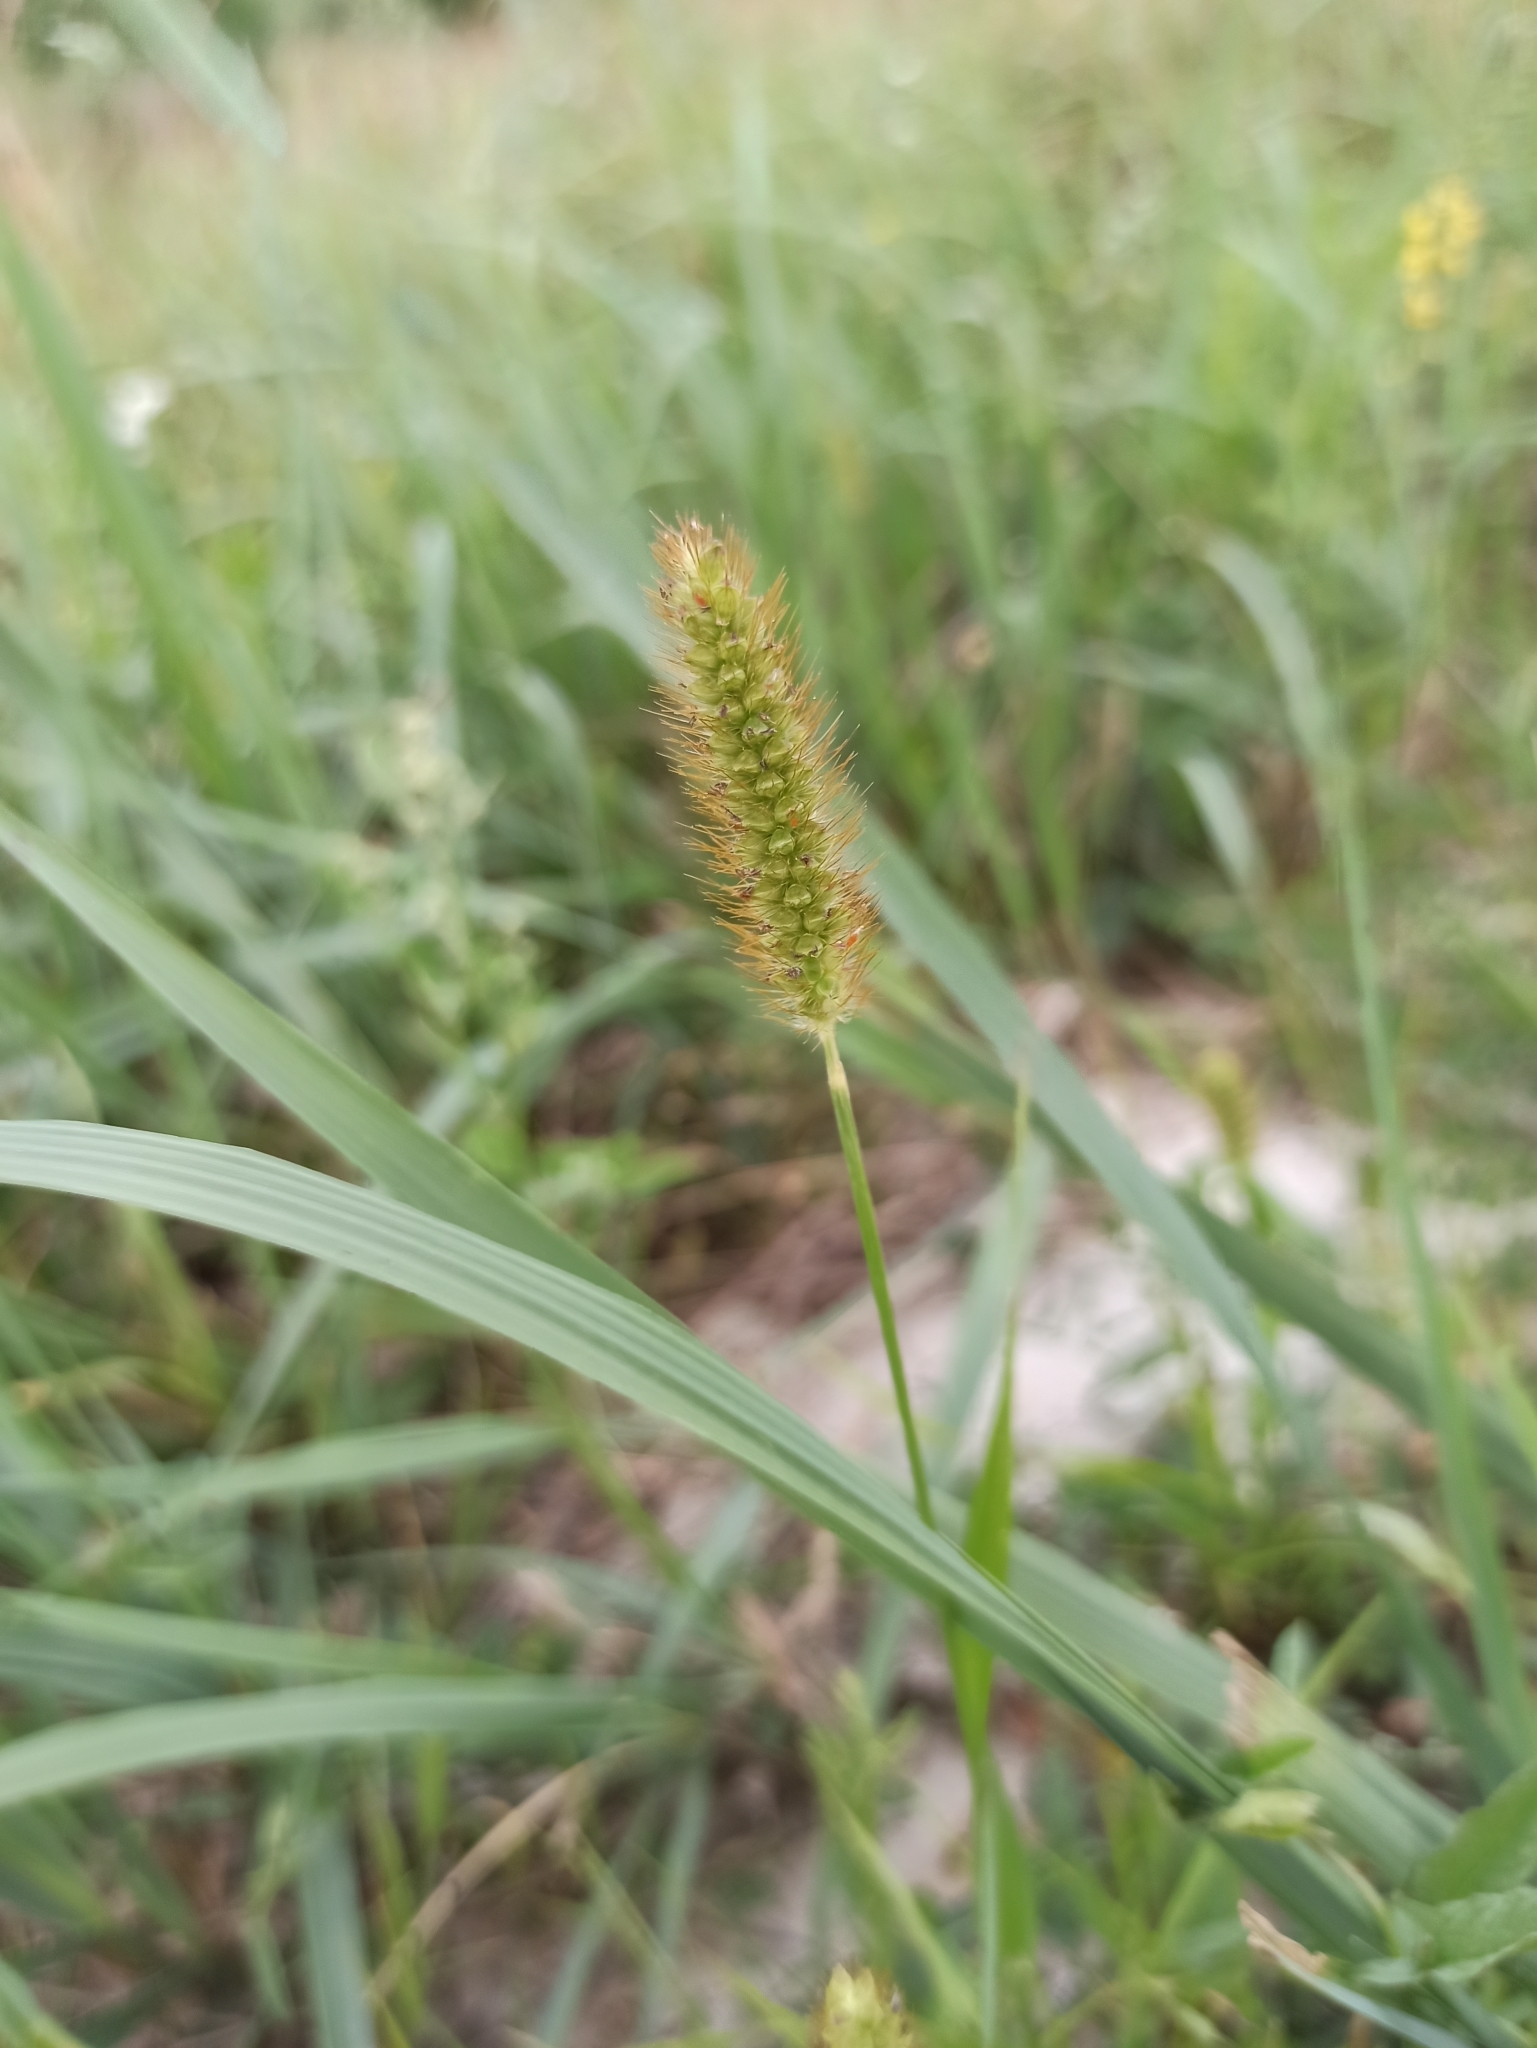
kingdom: Plantae
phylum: Tracheophyta
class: Liliopsida
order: Poales
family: Poaceae
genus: Setaria
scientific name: Setaria pumila
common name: Yellow bristle-grass
